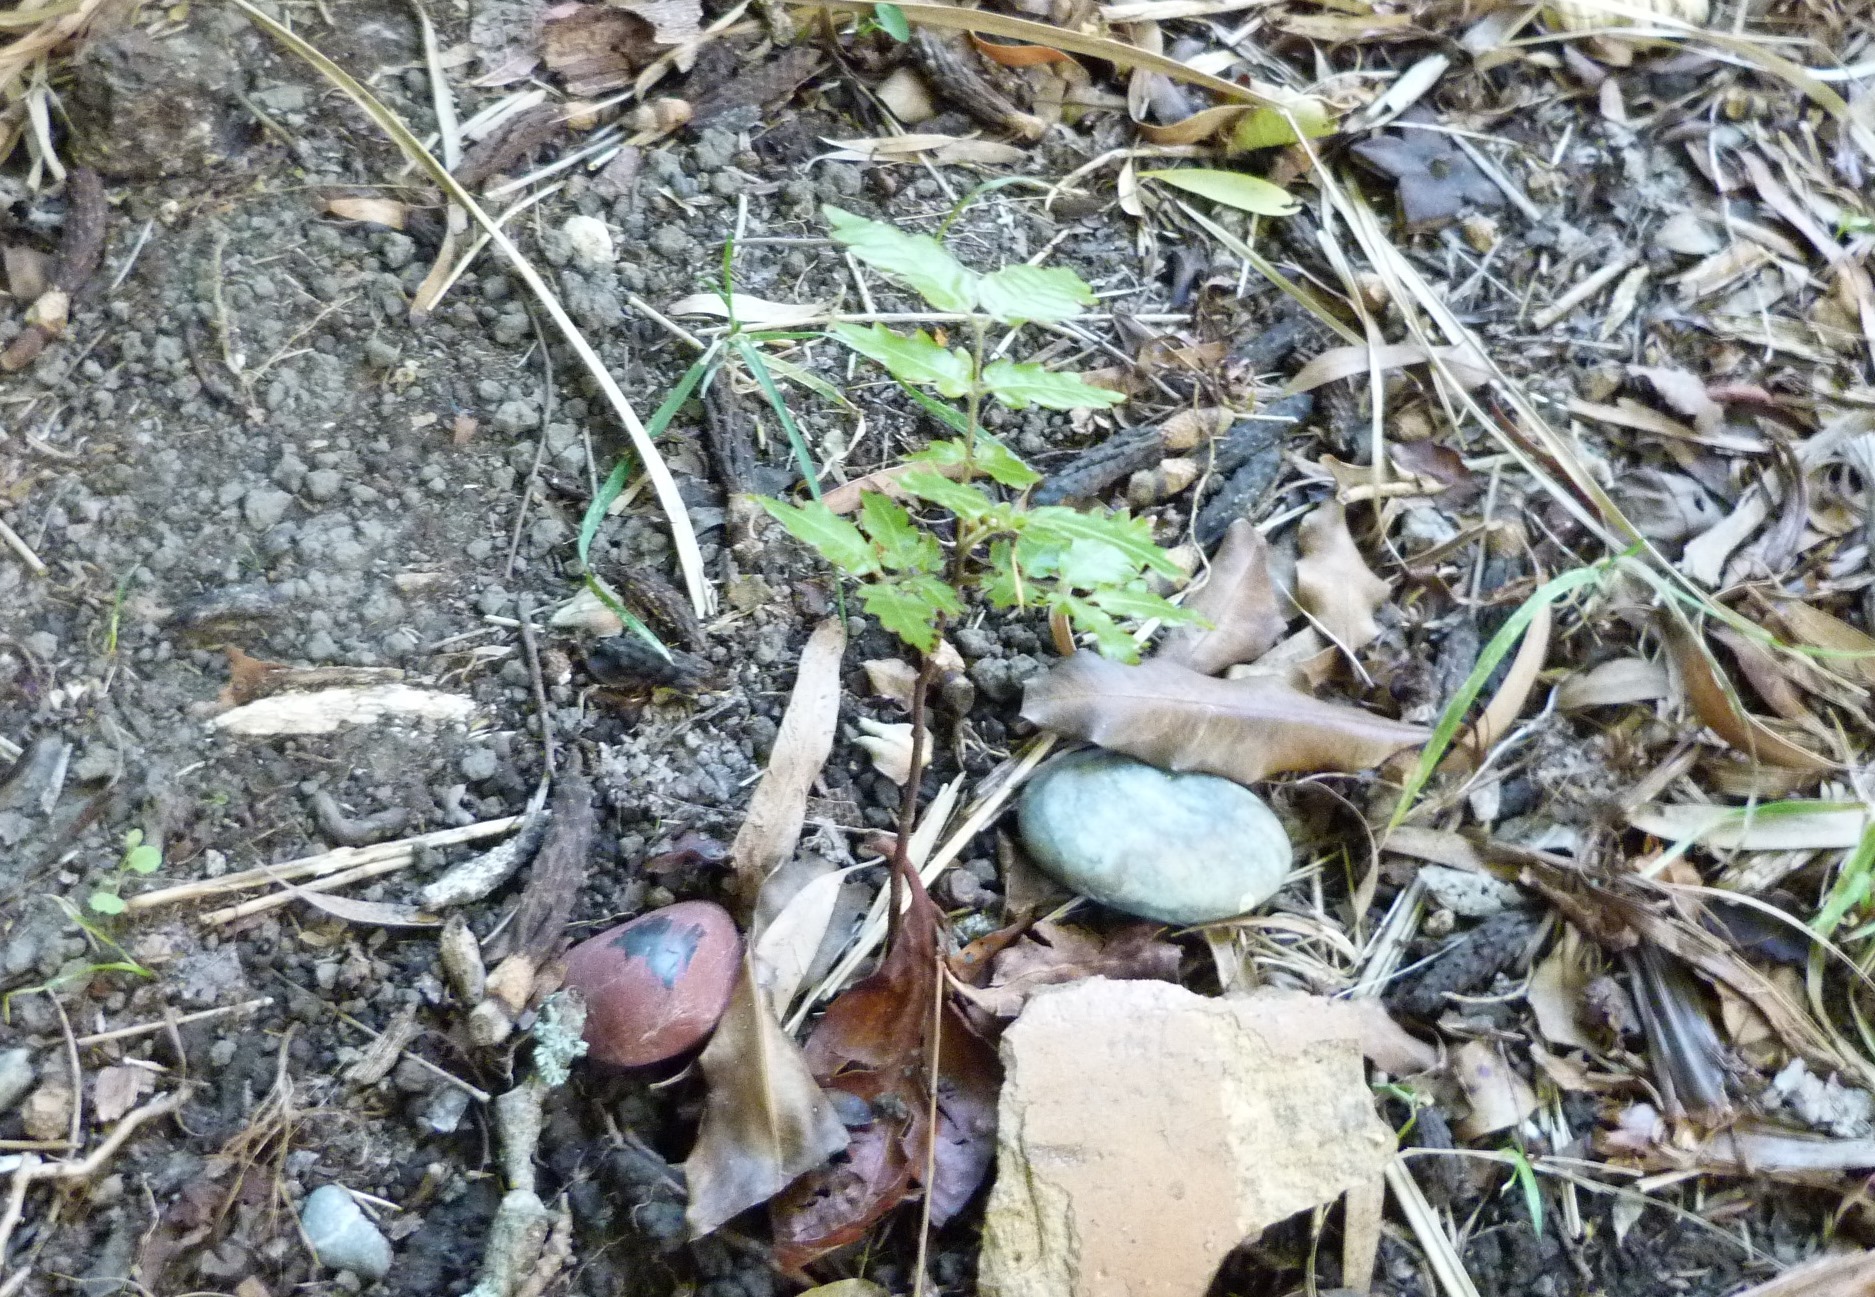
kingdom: Plantae
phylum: Tracheophyta
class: Magnoliopsida
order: Sapindales
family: Sapindaceae
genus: Alectryon
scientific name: Alectryon excelsus
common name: Three kings titoki
